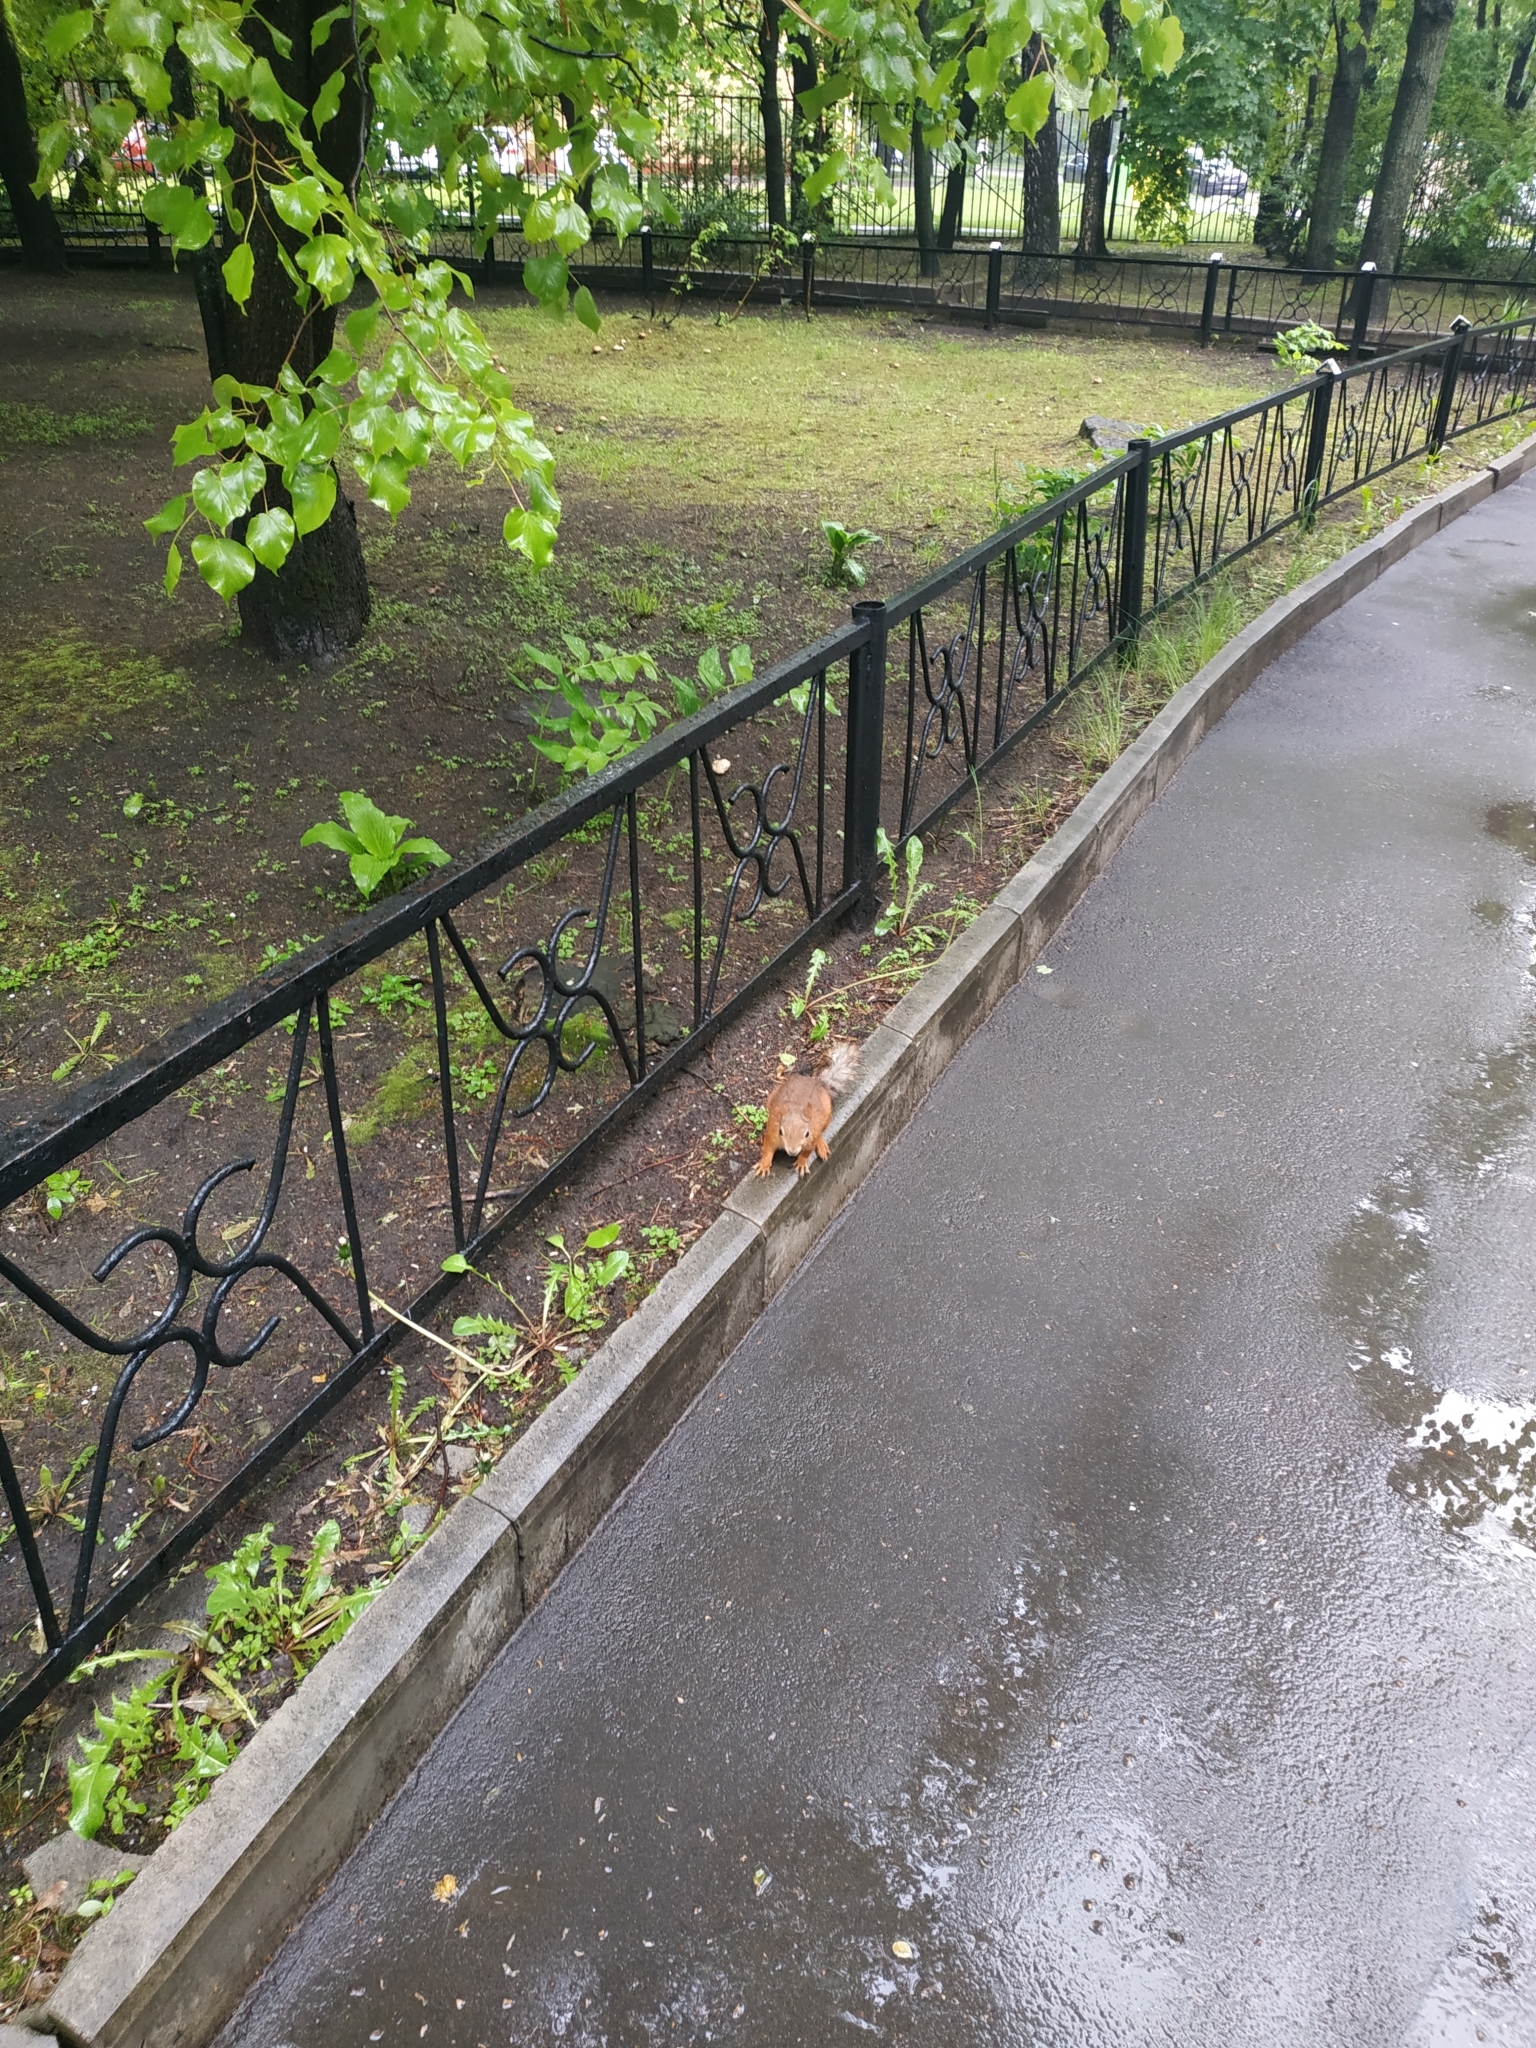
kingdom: Animalia
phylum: Chordata
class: Mammalia
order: Rodentia
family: Sciuridae
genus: Sciurus
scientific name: Sciurus vulgaris
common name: Eurasian red squirrel
